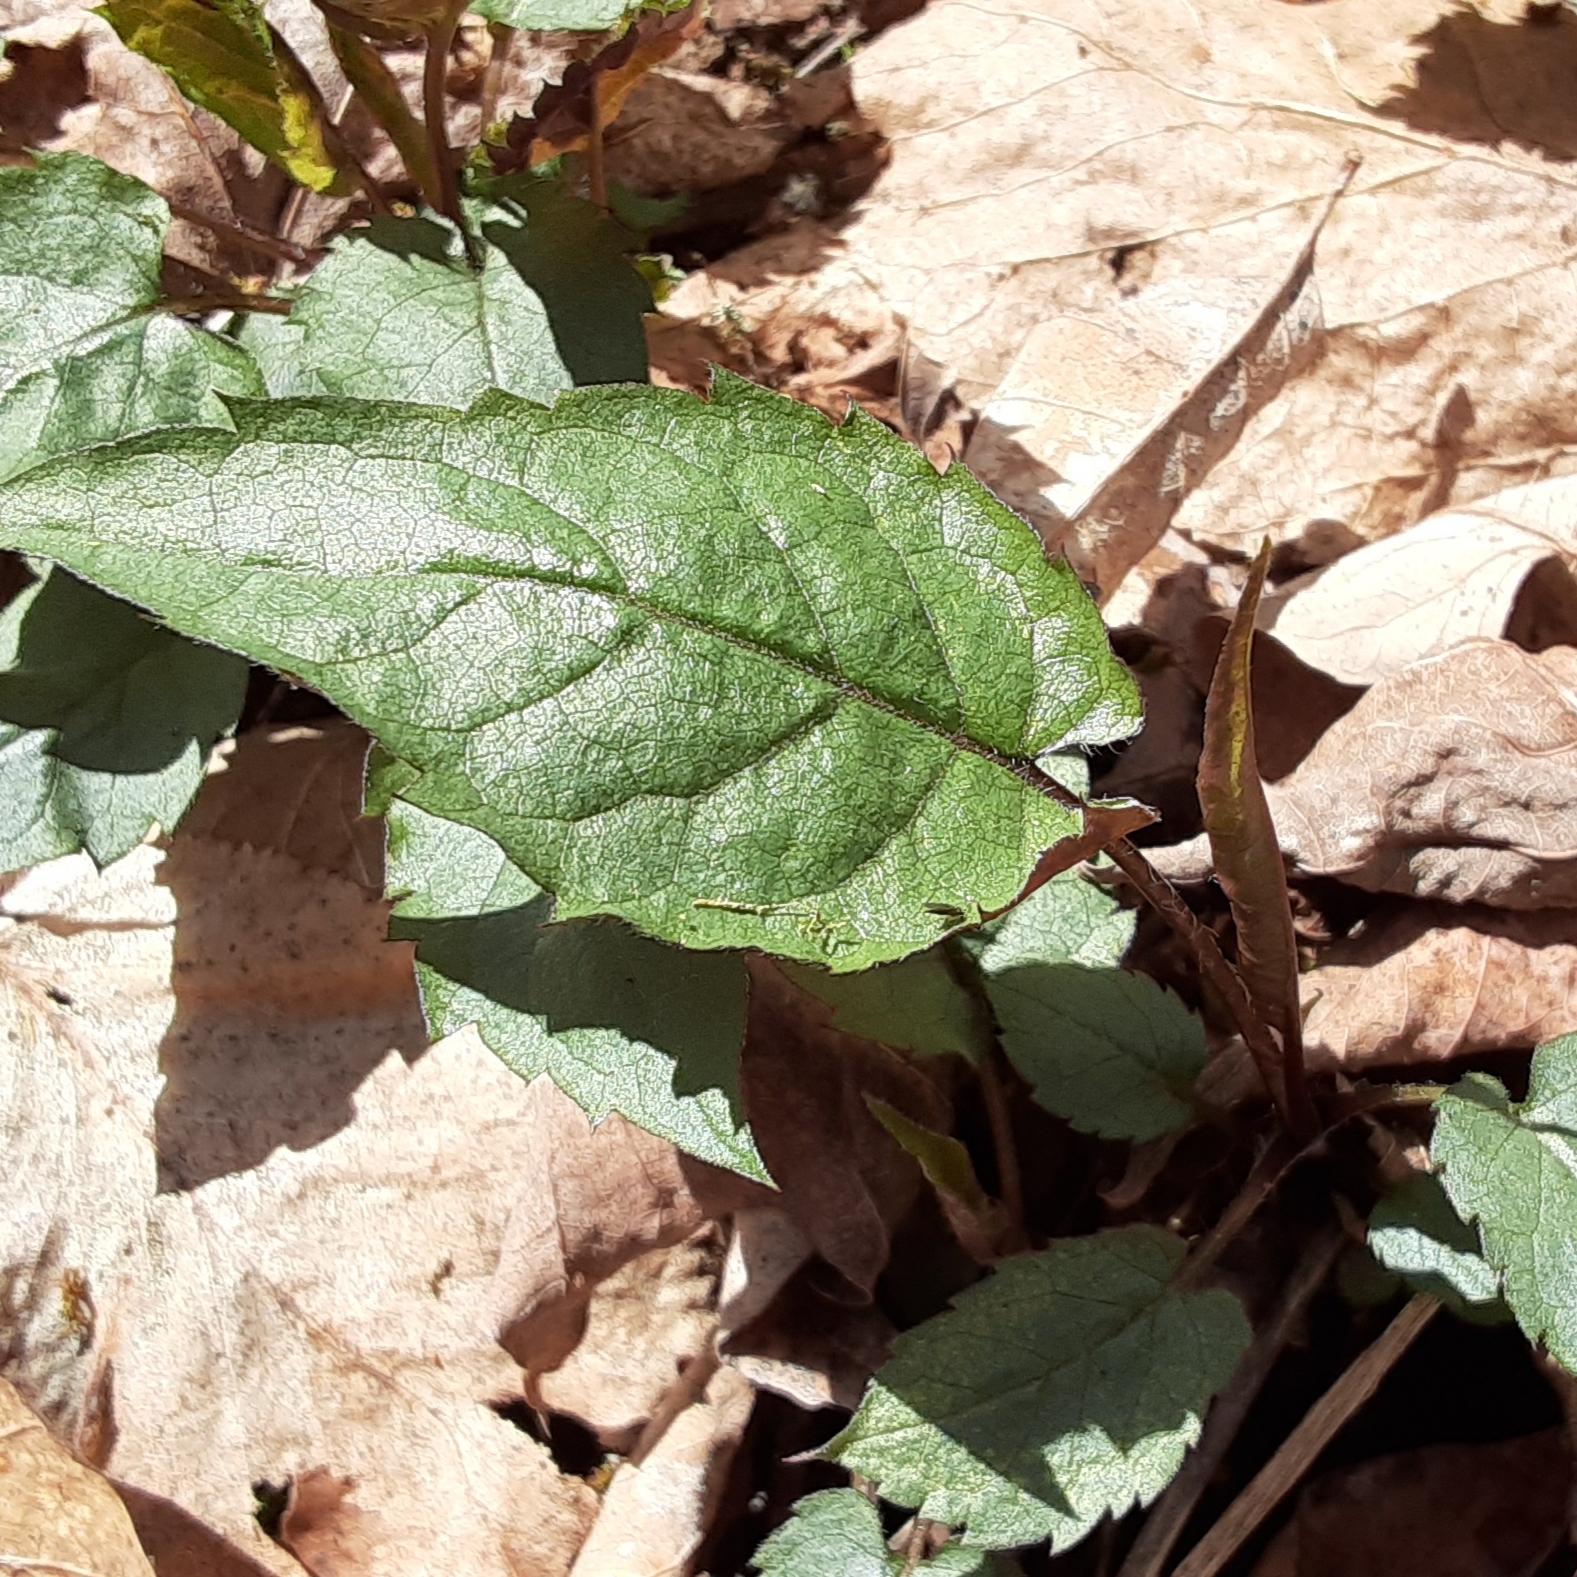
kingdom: Plantae
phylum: Tracheophyta
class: Magnoliopsida
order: Asterales
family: Asteraceae
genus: Eurybia
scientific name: Eurybia divaricata
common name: White wood aster
